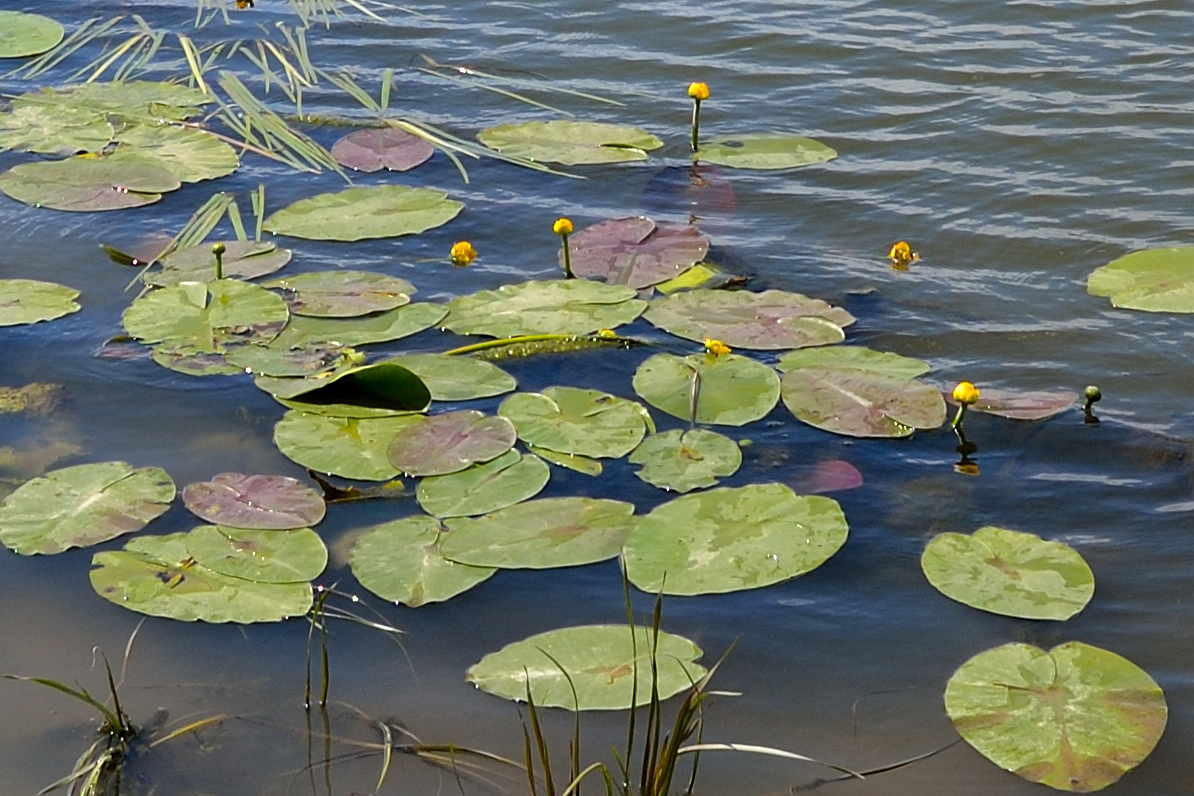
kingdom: Plantae
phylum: Tracheophyta
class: Magnoliopsida
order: Nymphaeales
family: Nymphaeaceae
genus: Nuphar
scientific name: Nuphar lutea
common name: Yellow water-lily
